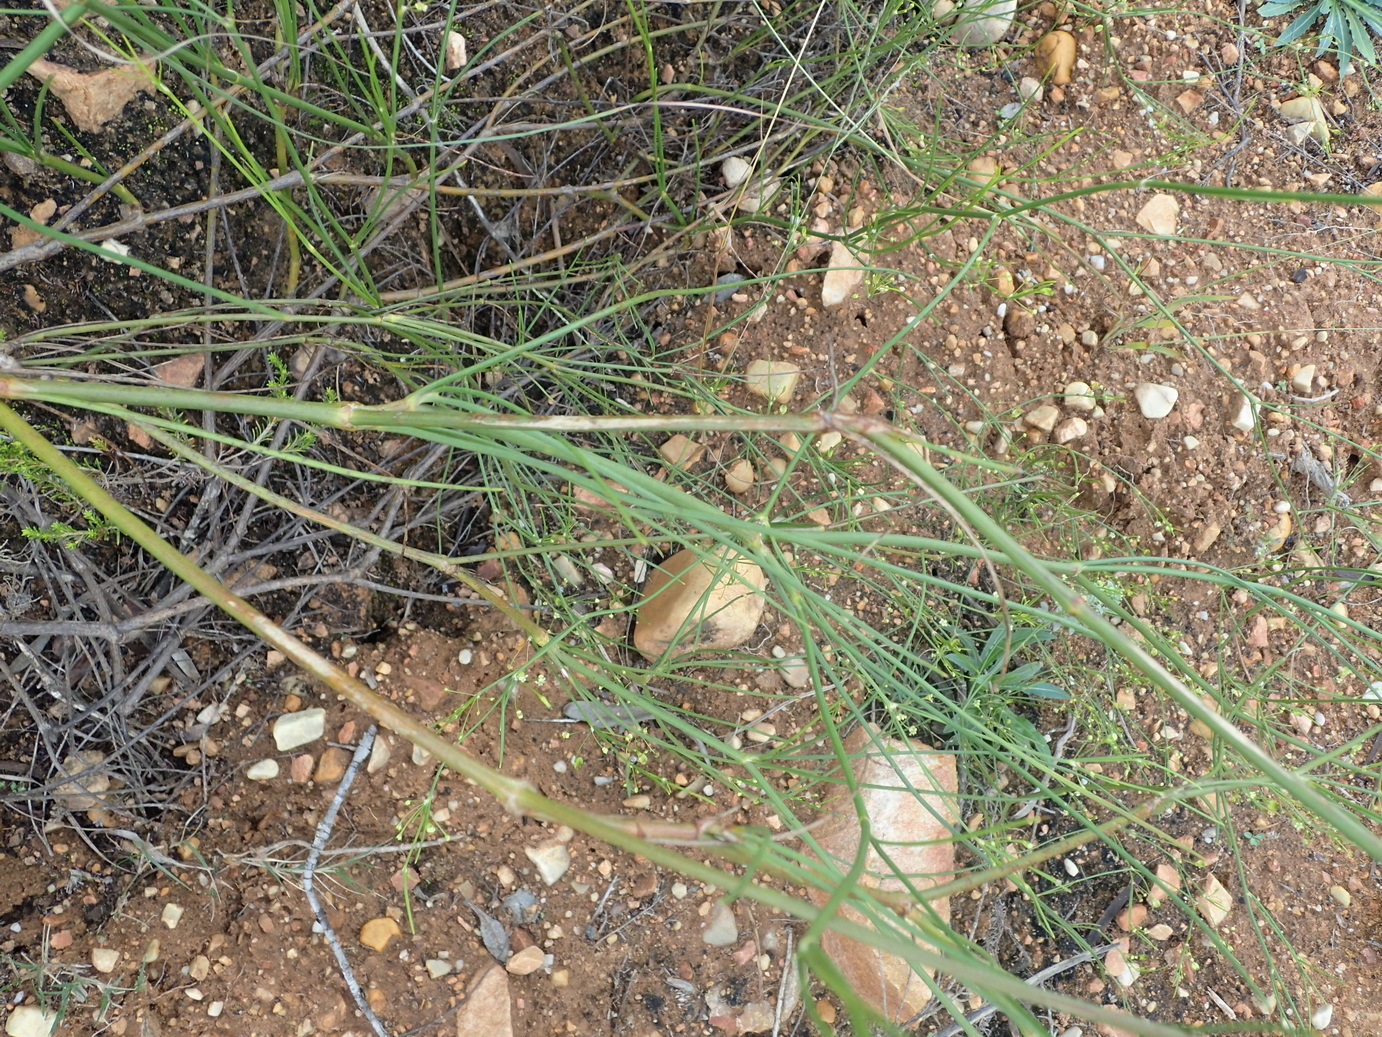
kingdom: Plantae
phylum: Tracheophyta
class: Magnoliopsida
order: Apiales
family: Apiaceae
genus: Centella
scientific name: Centella virgata
